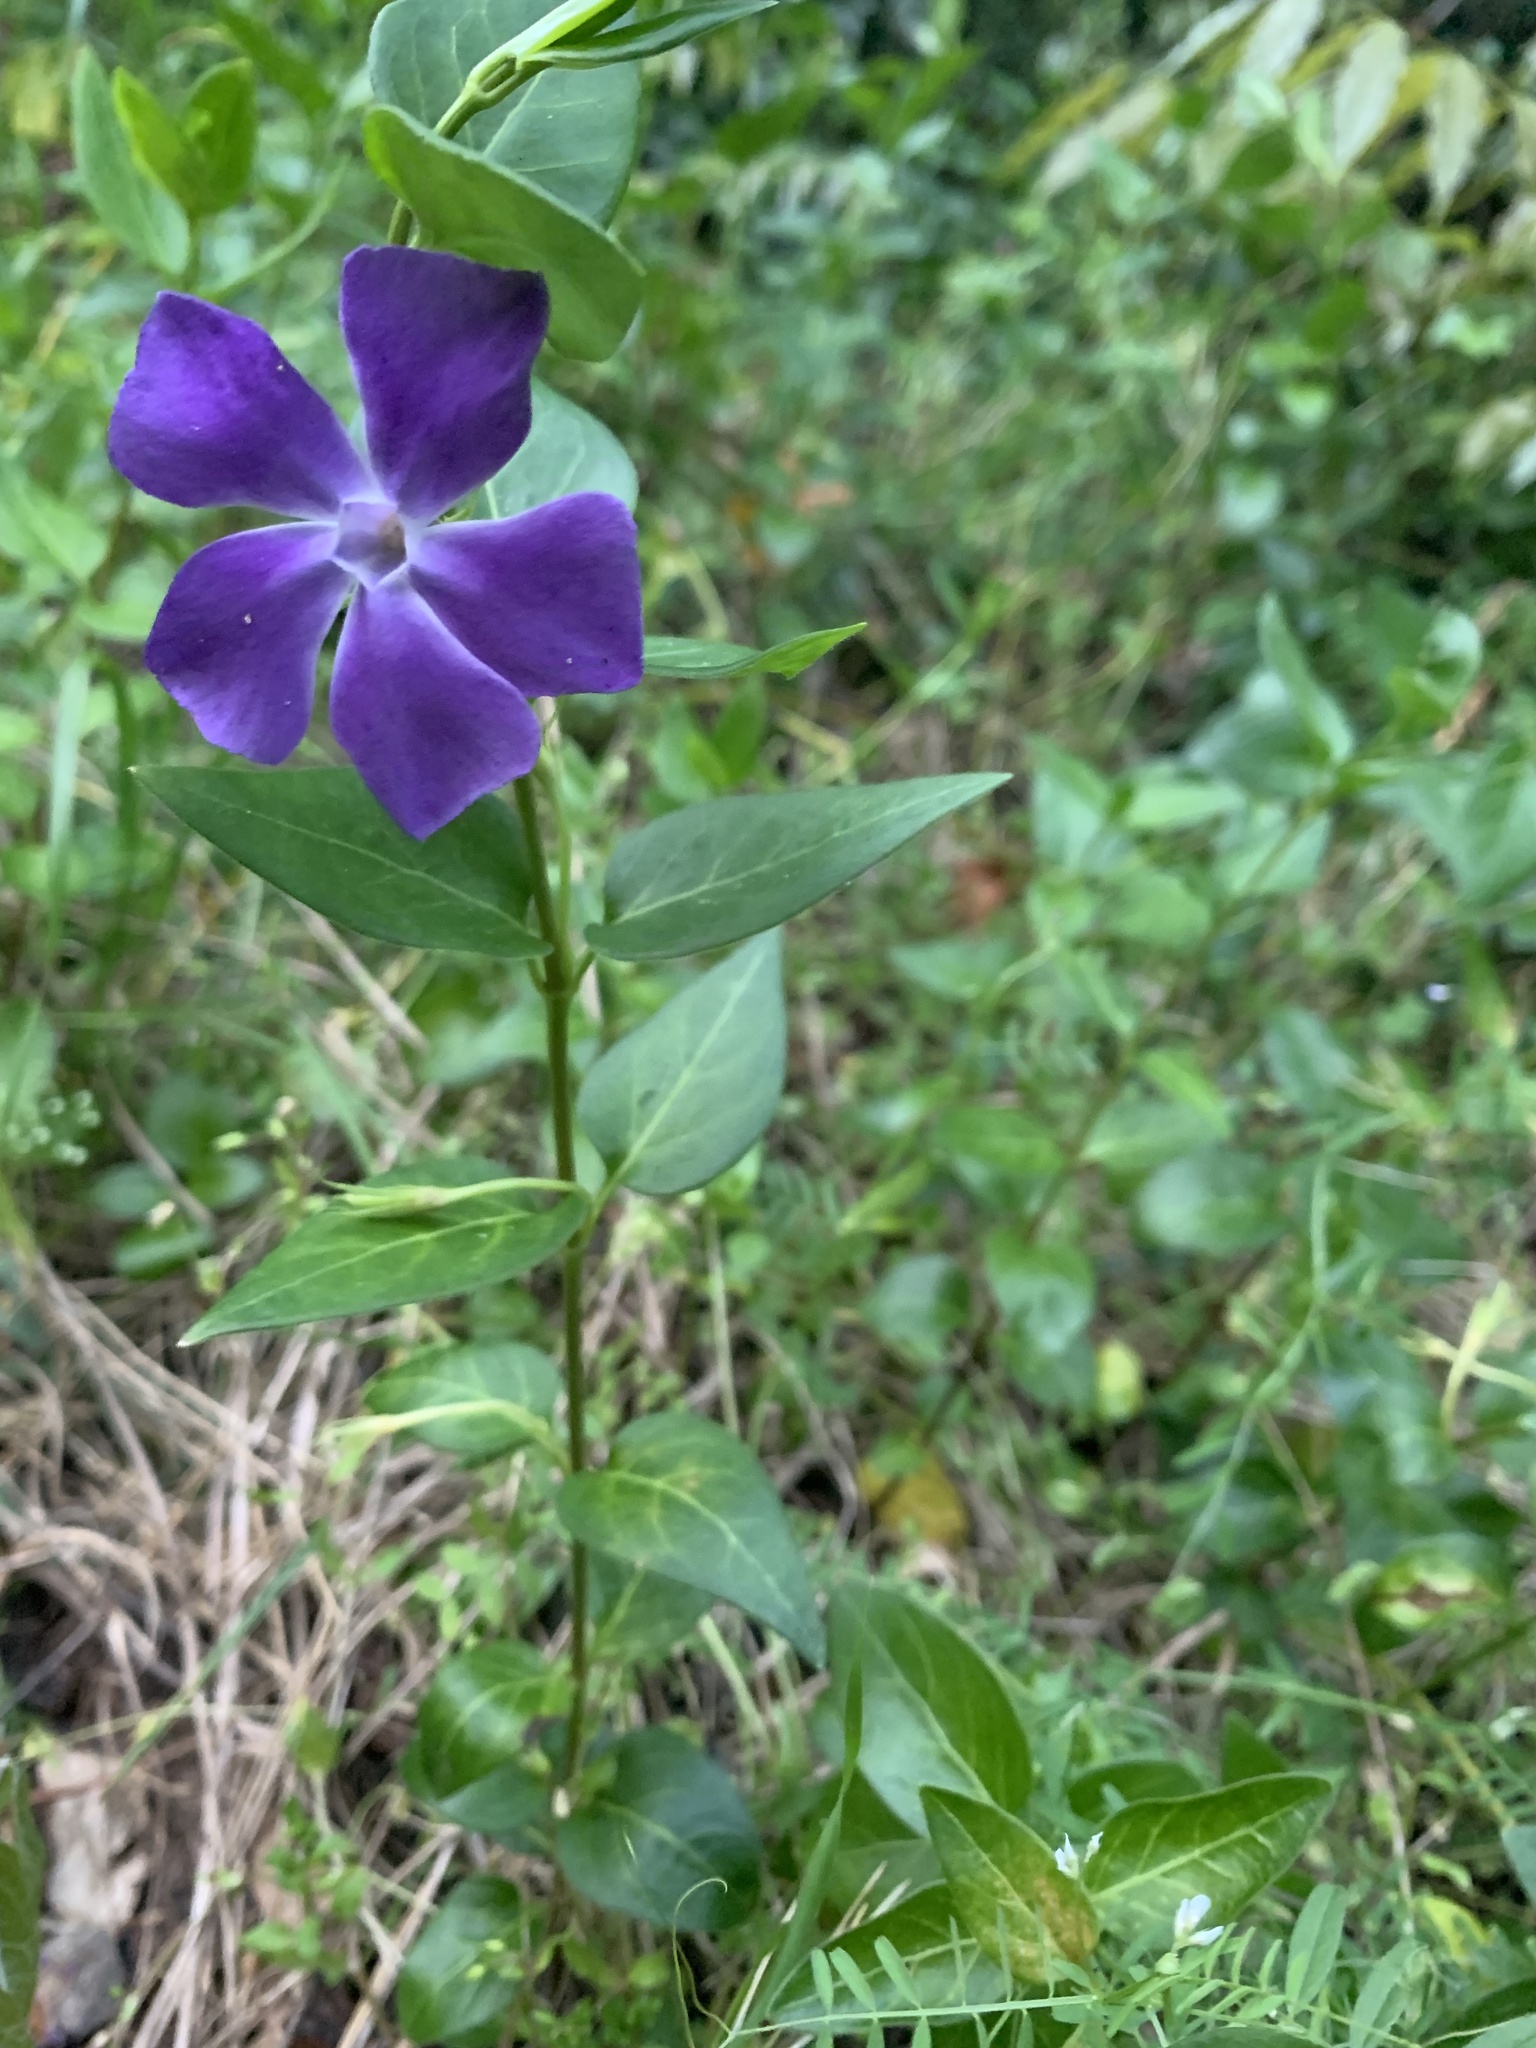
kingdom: Plantae
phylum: Tracheophyta
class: Magnoliopsida
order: Gentianales
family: Apocynaceae
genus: Vinca
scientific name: Vinca major
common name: Greater periwinkle
